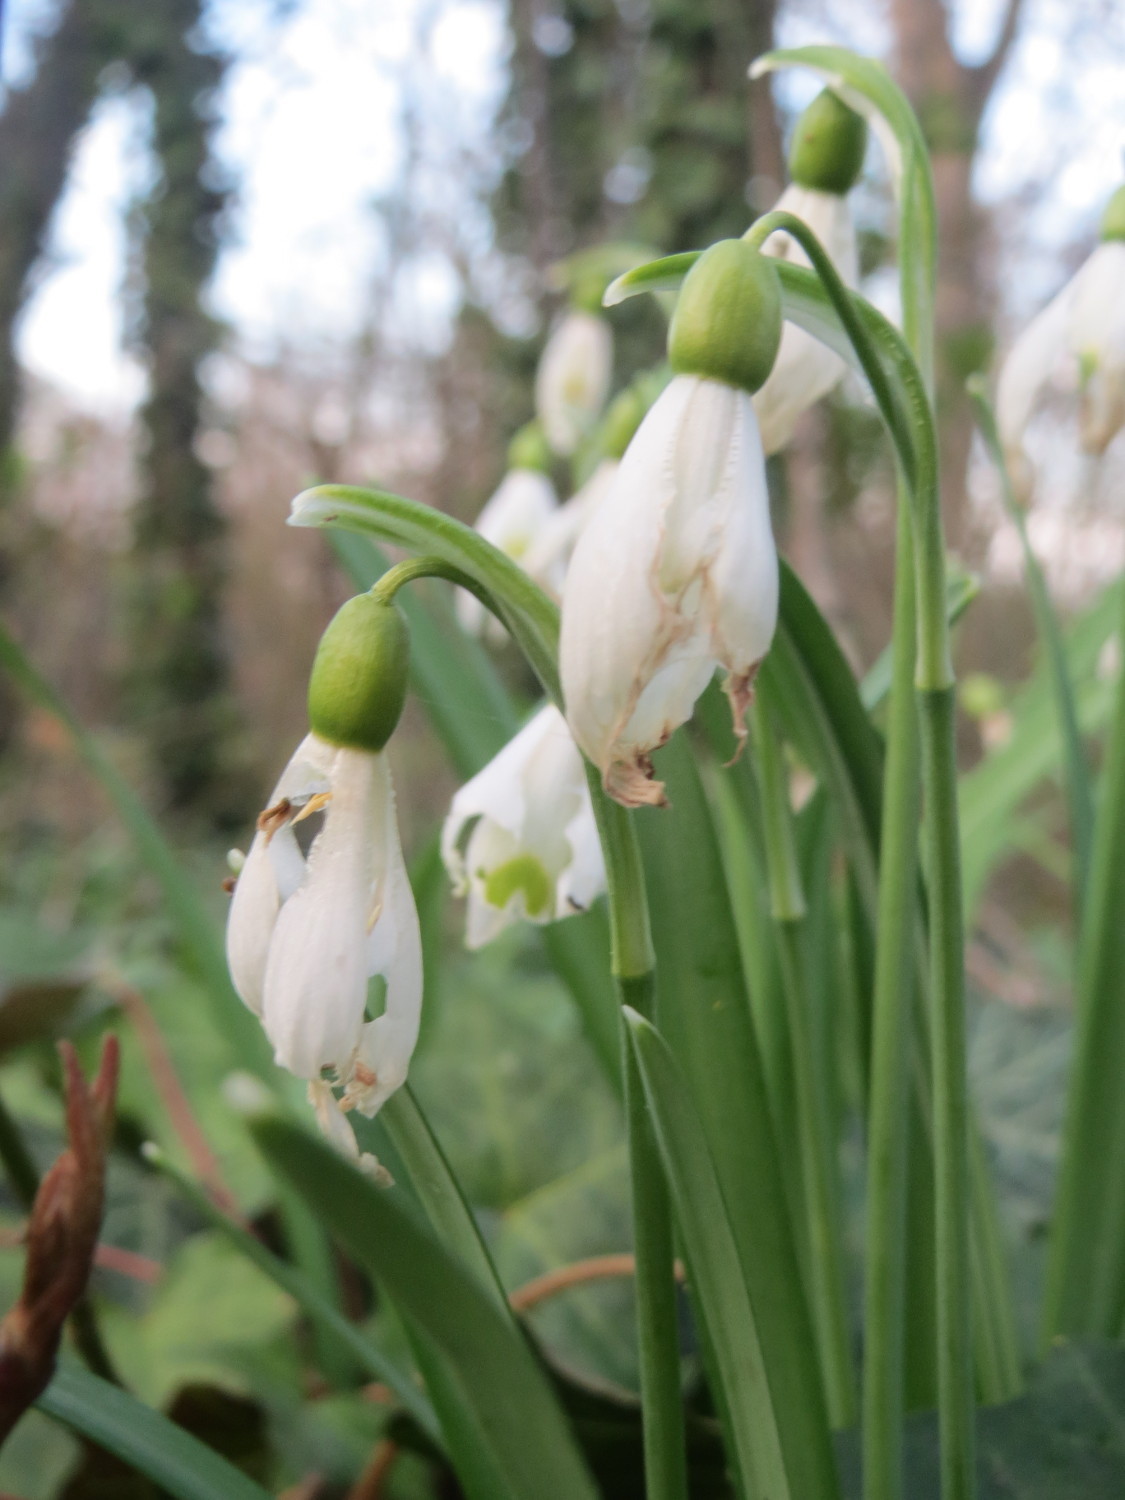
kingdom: Plantae
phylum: Tracheophyta
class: Liliopsida
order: Asparagales
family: Amaryllidaceae
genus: Galanthus
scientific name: Galanthus nivalis
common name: Snowdrop
